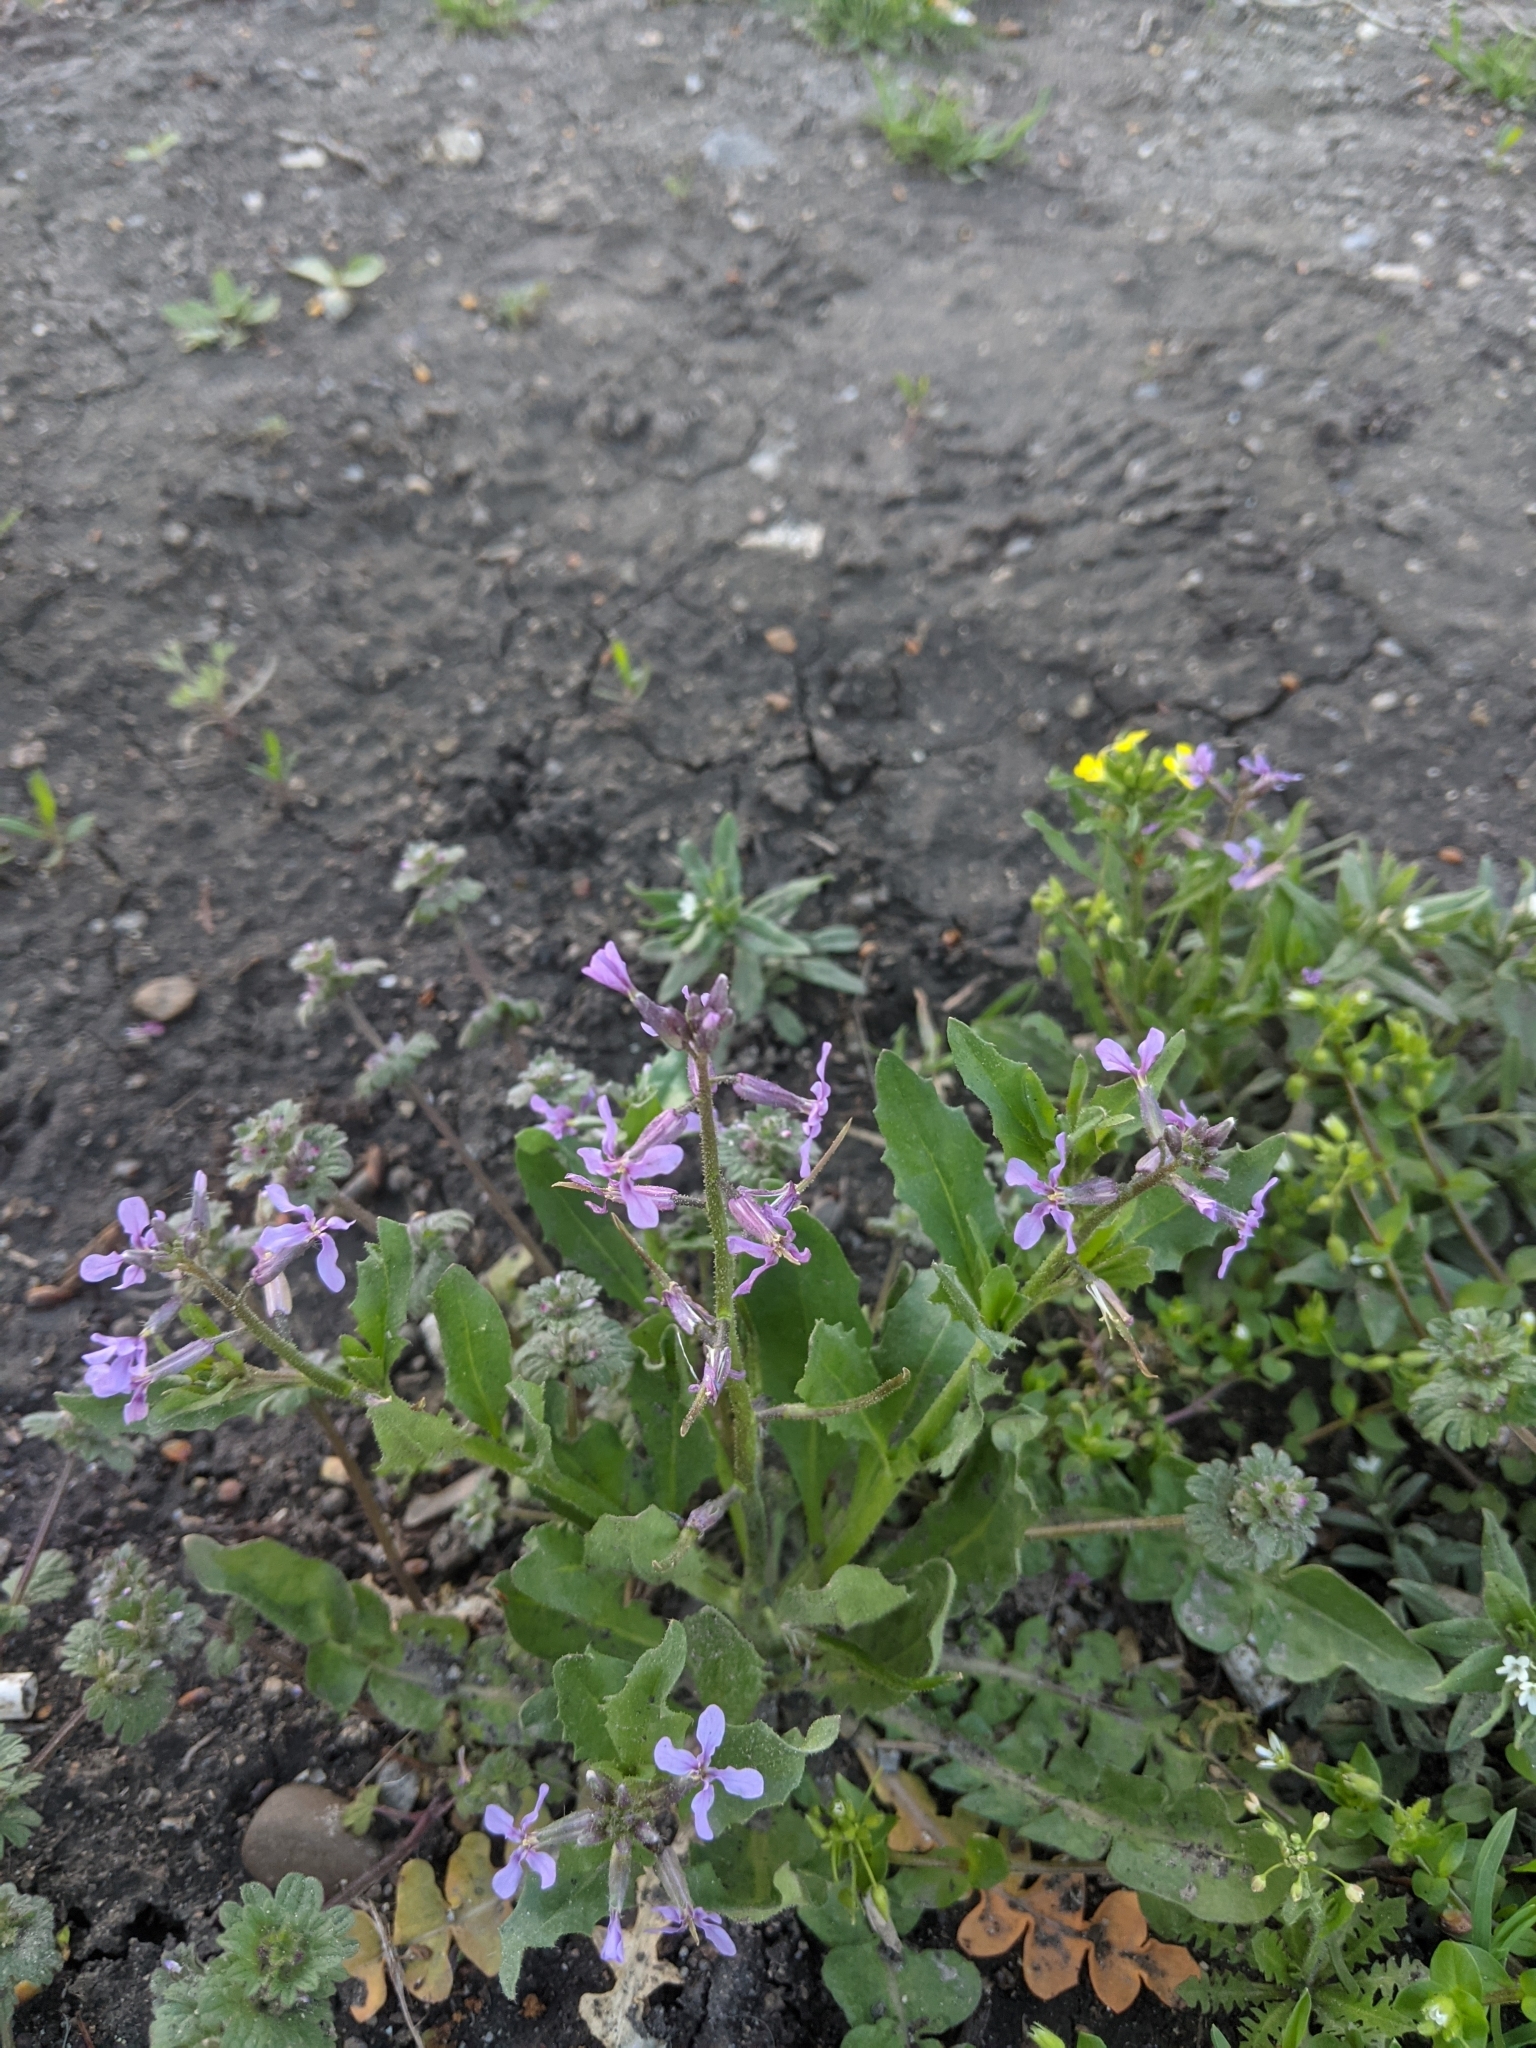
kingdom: Plantae
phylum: Tracheophyta
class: Magnoliopsida
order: Brassicales
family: Brassicaceae
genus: Chorispora
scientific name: Chorispora tenella
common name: Crossflower
